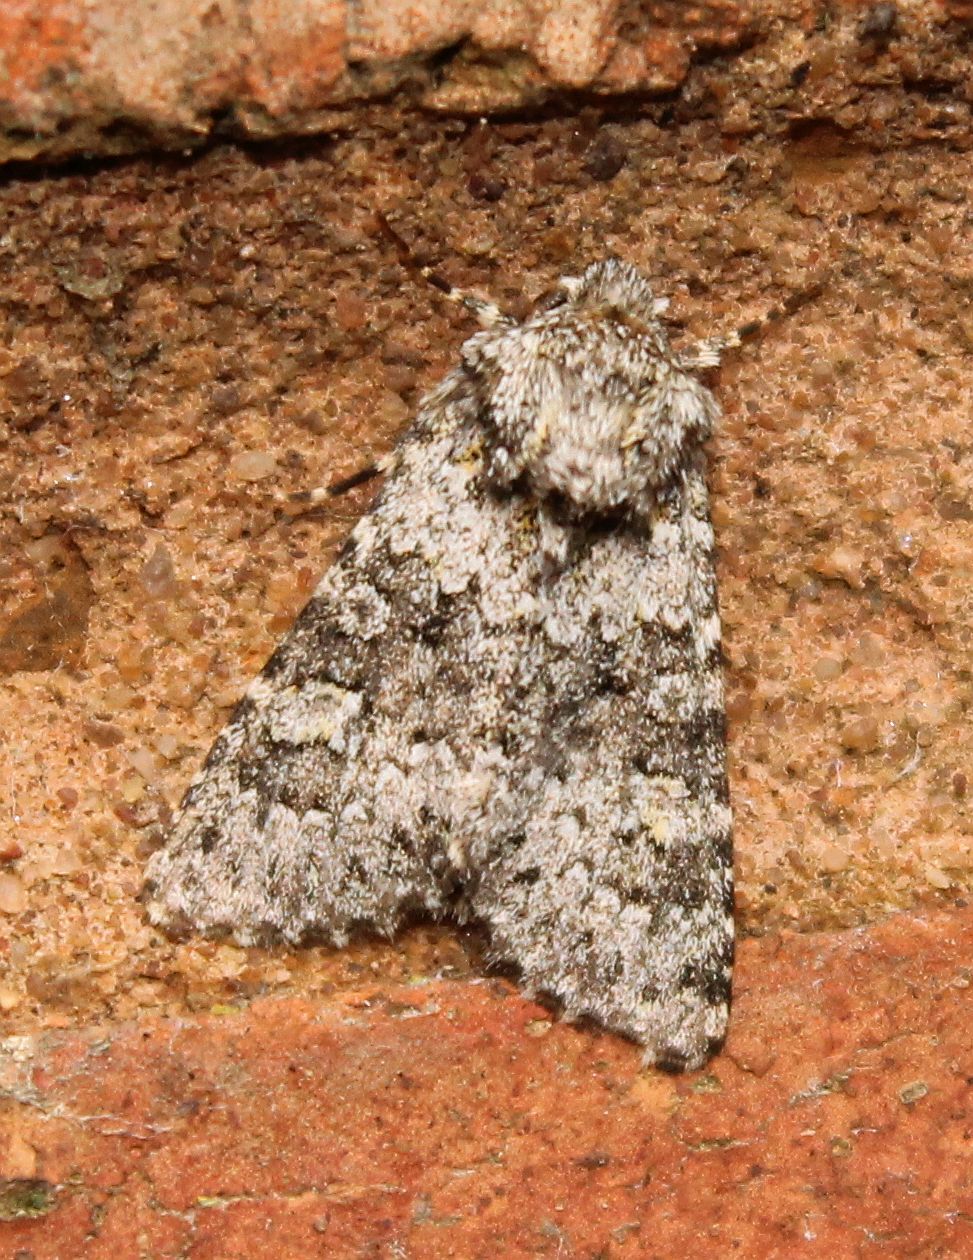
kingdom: Animalia
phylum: Arthropoda
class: Insecta
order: Lepidoptera
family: Noctuidae
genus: Hecatera
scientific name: Hecatera dysodea
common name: Small ranunculus
